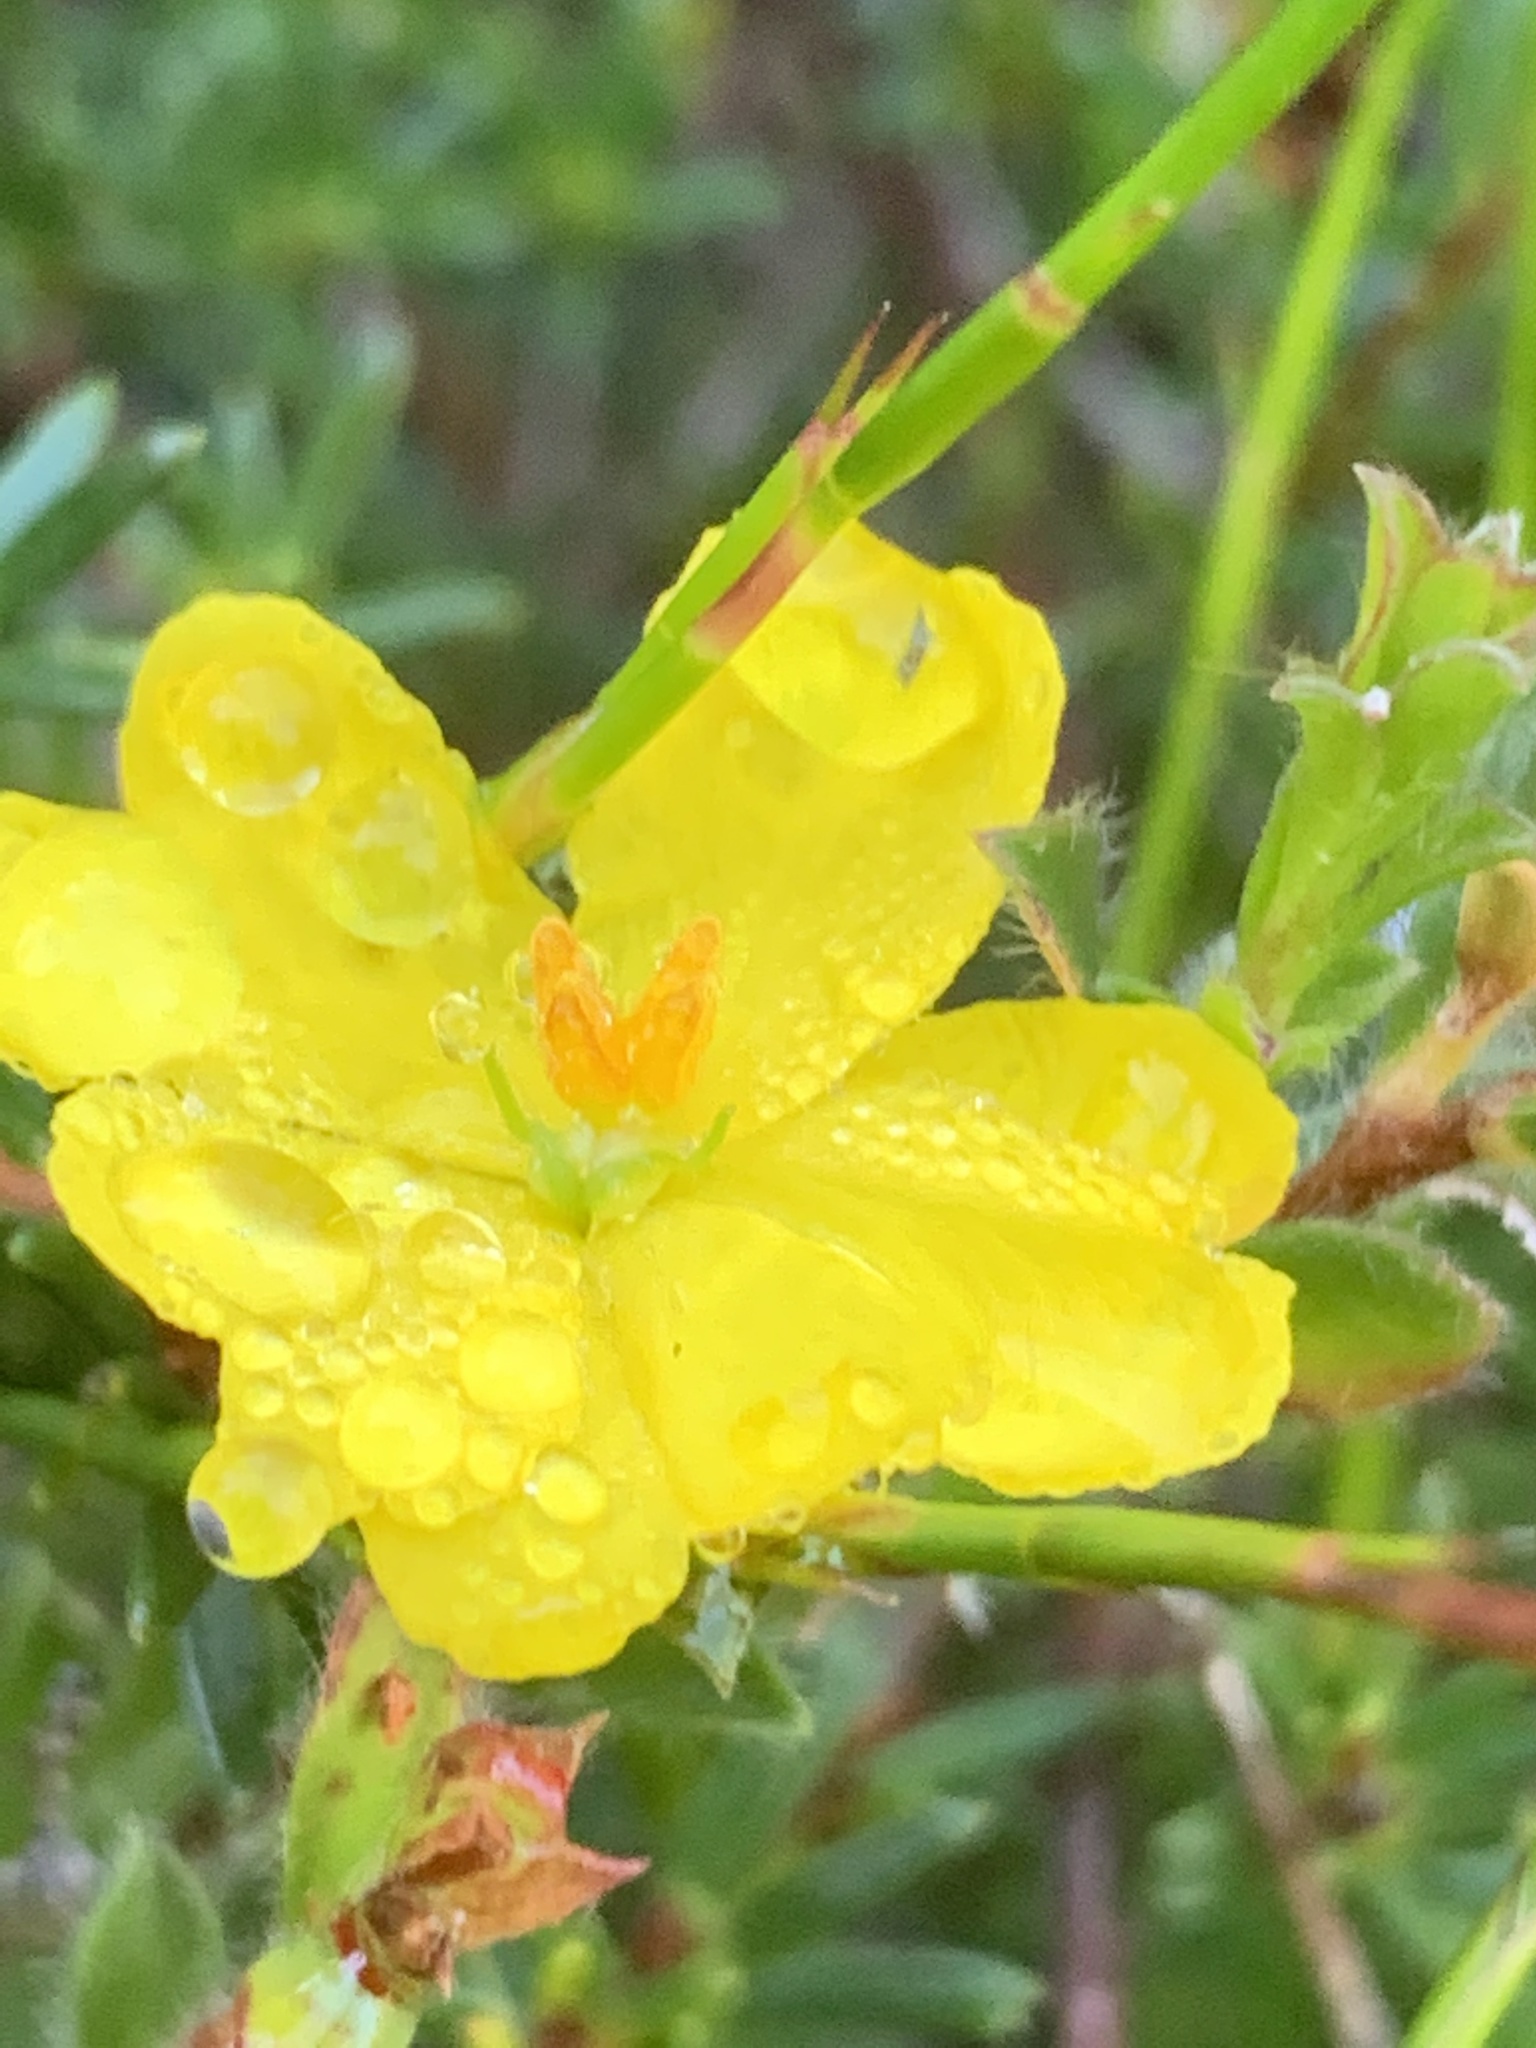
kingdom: Plantae
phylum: Tracheophyta
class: Magnoliopsida
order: Dilleniales
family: Dilleniaceae
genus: Hibbertia
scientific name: Hibbertia pustulata
